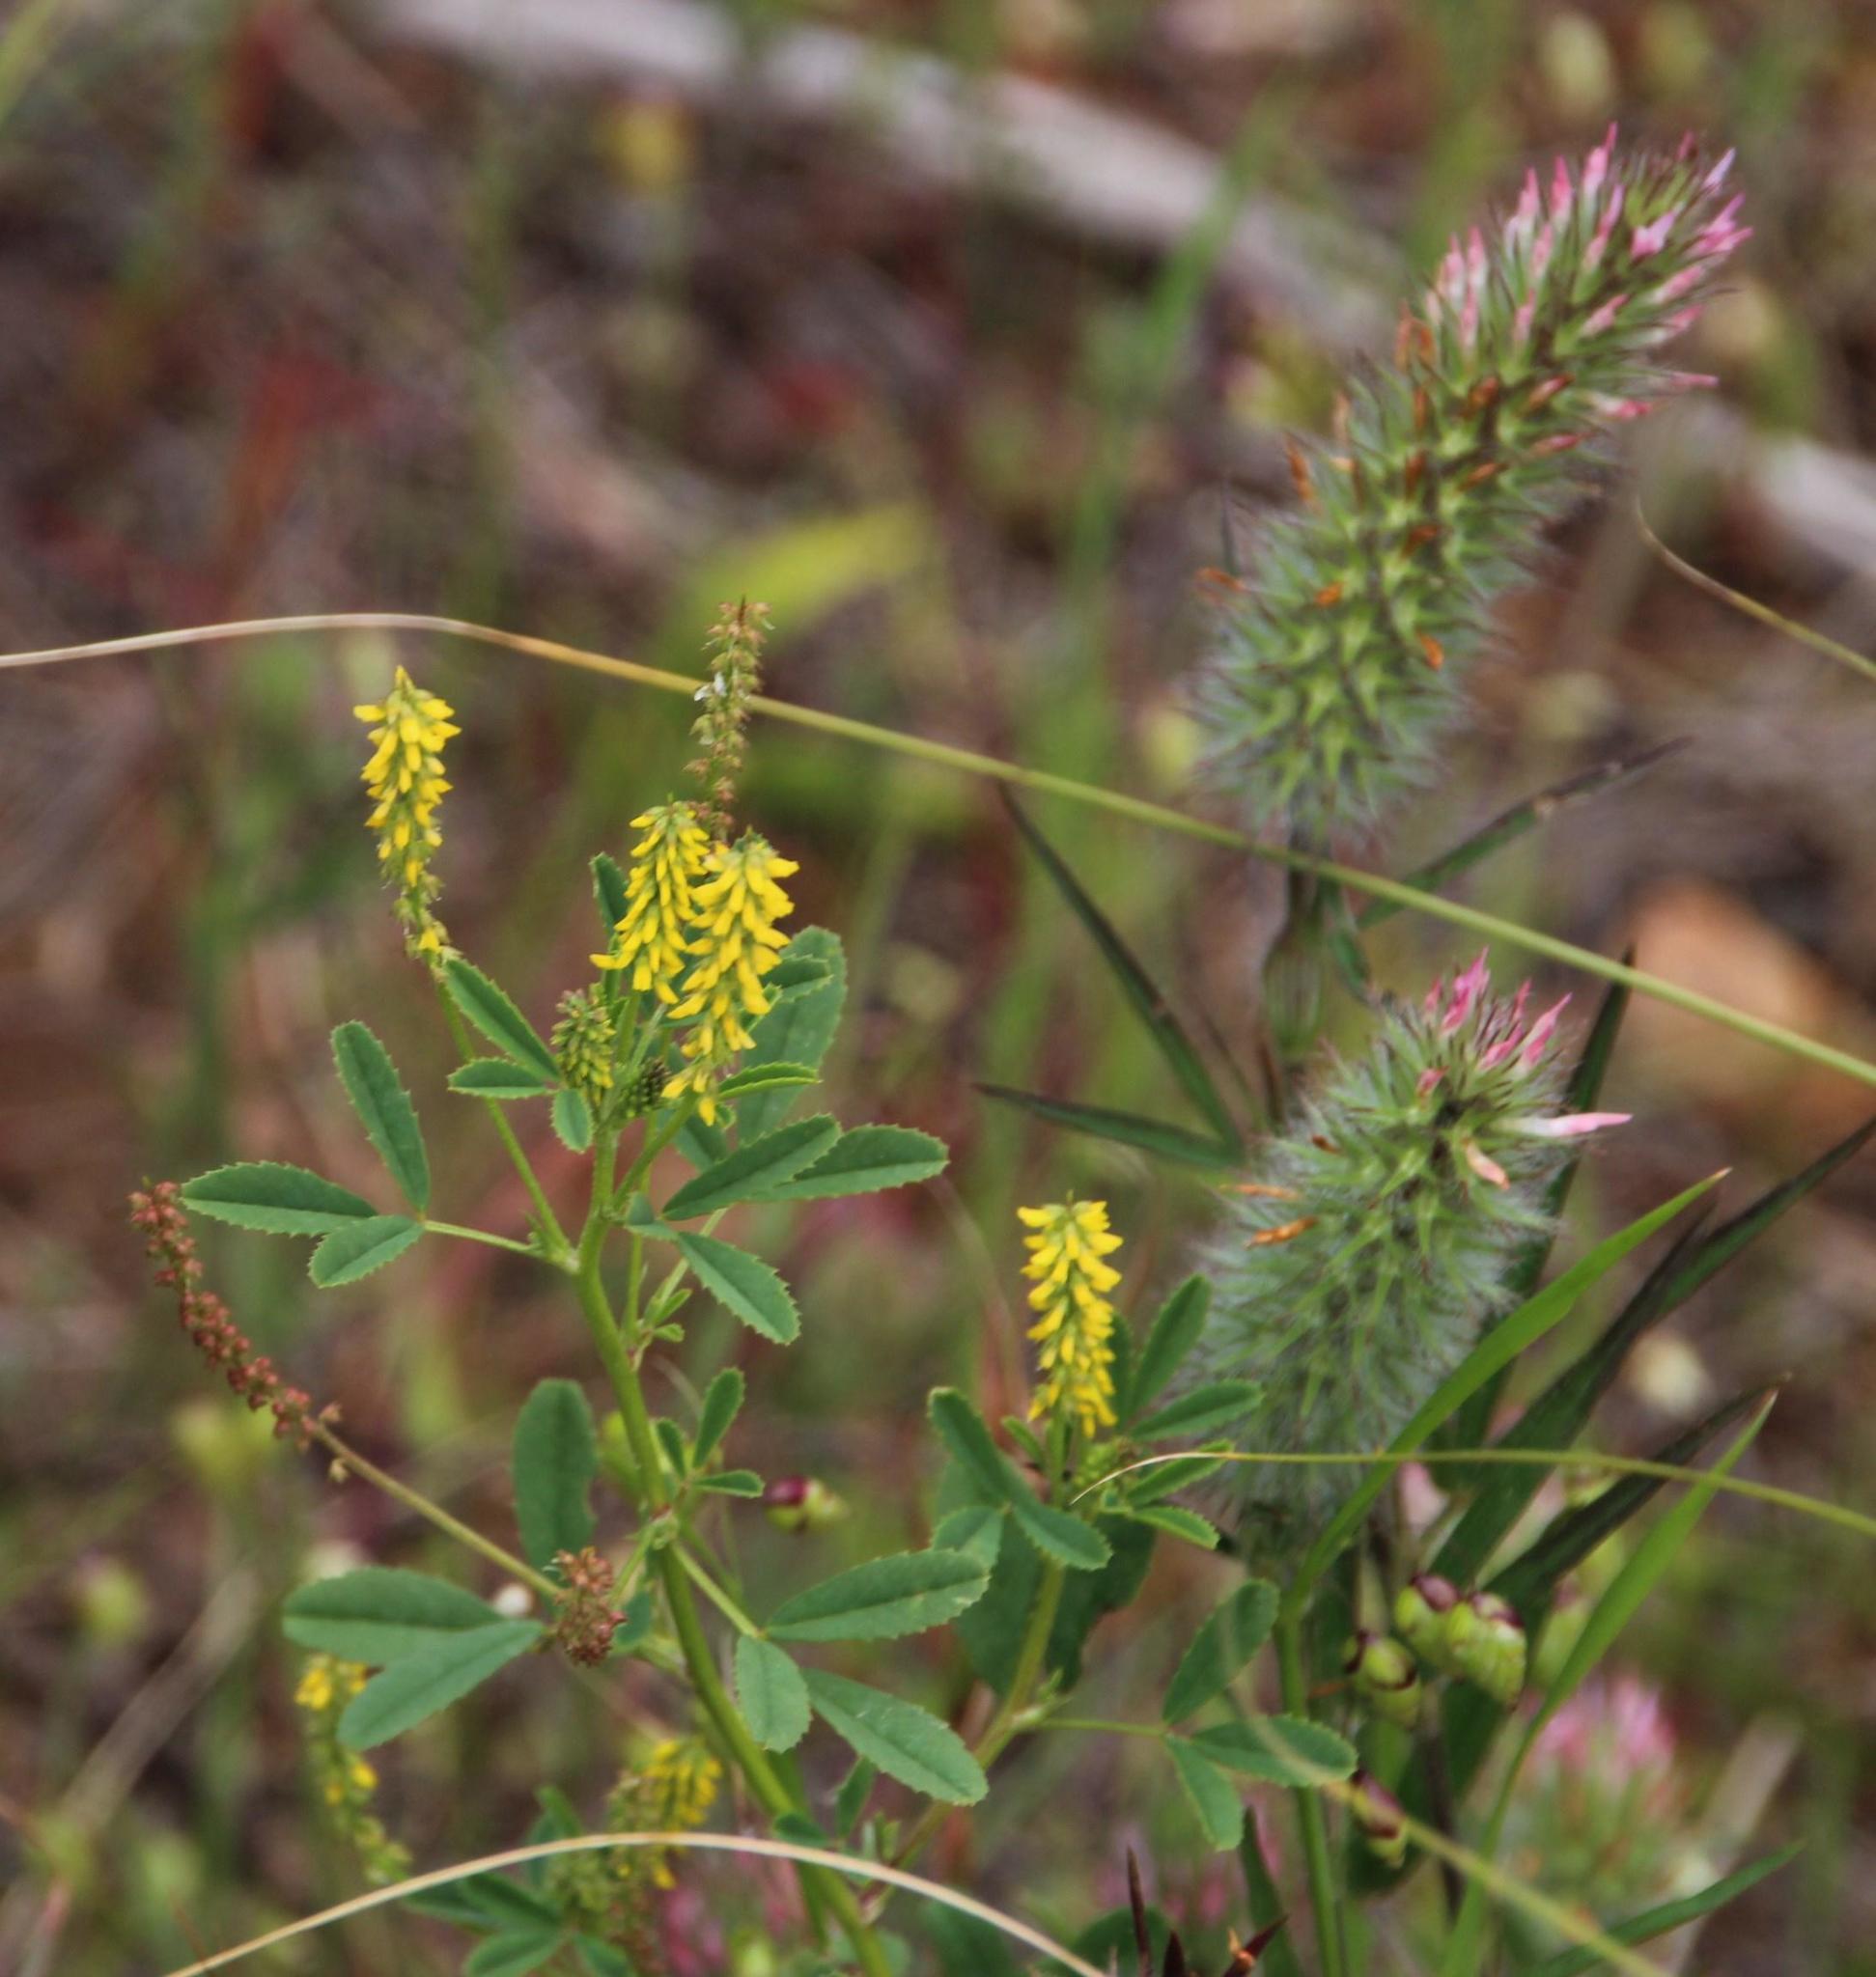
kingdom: Plantae
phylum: Tracheophyta
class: Magnoliopsida
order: Fabales
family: Fabaceae
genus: Melilotus
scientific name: Melilotus indicus
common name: Small melilot
